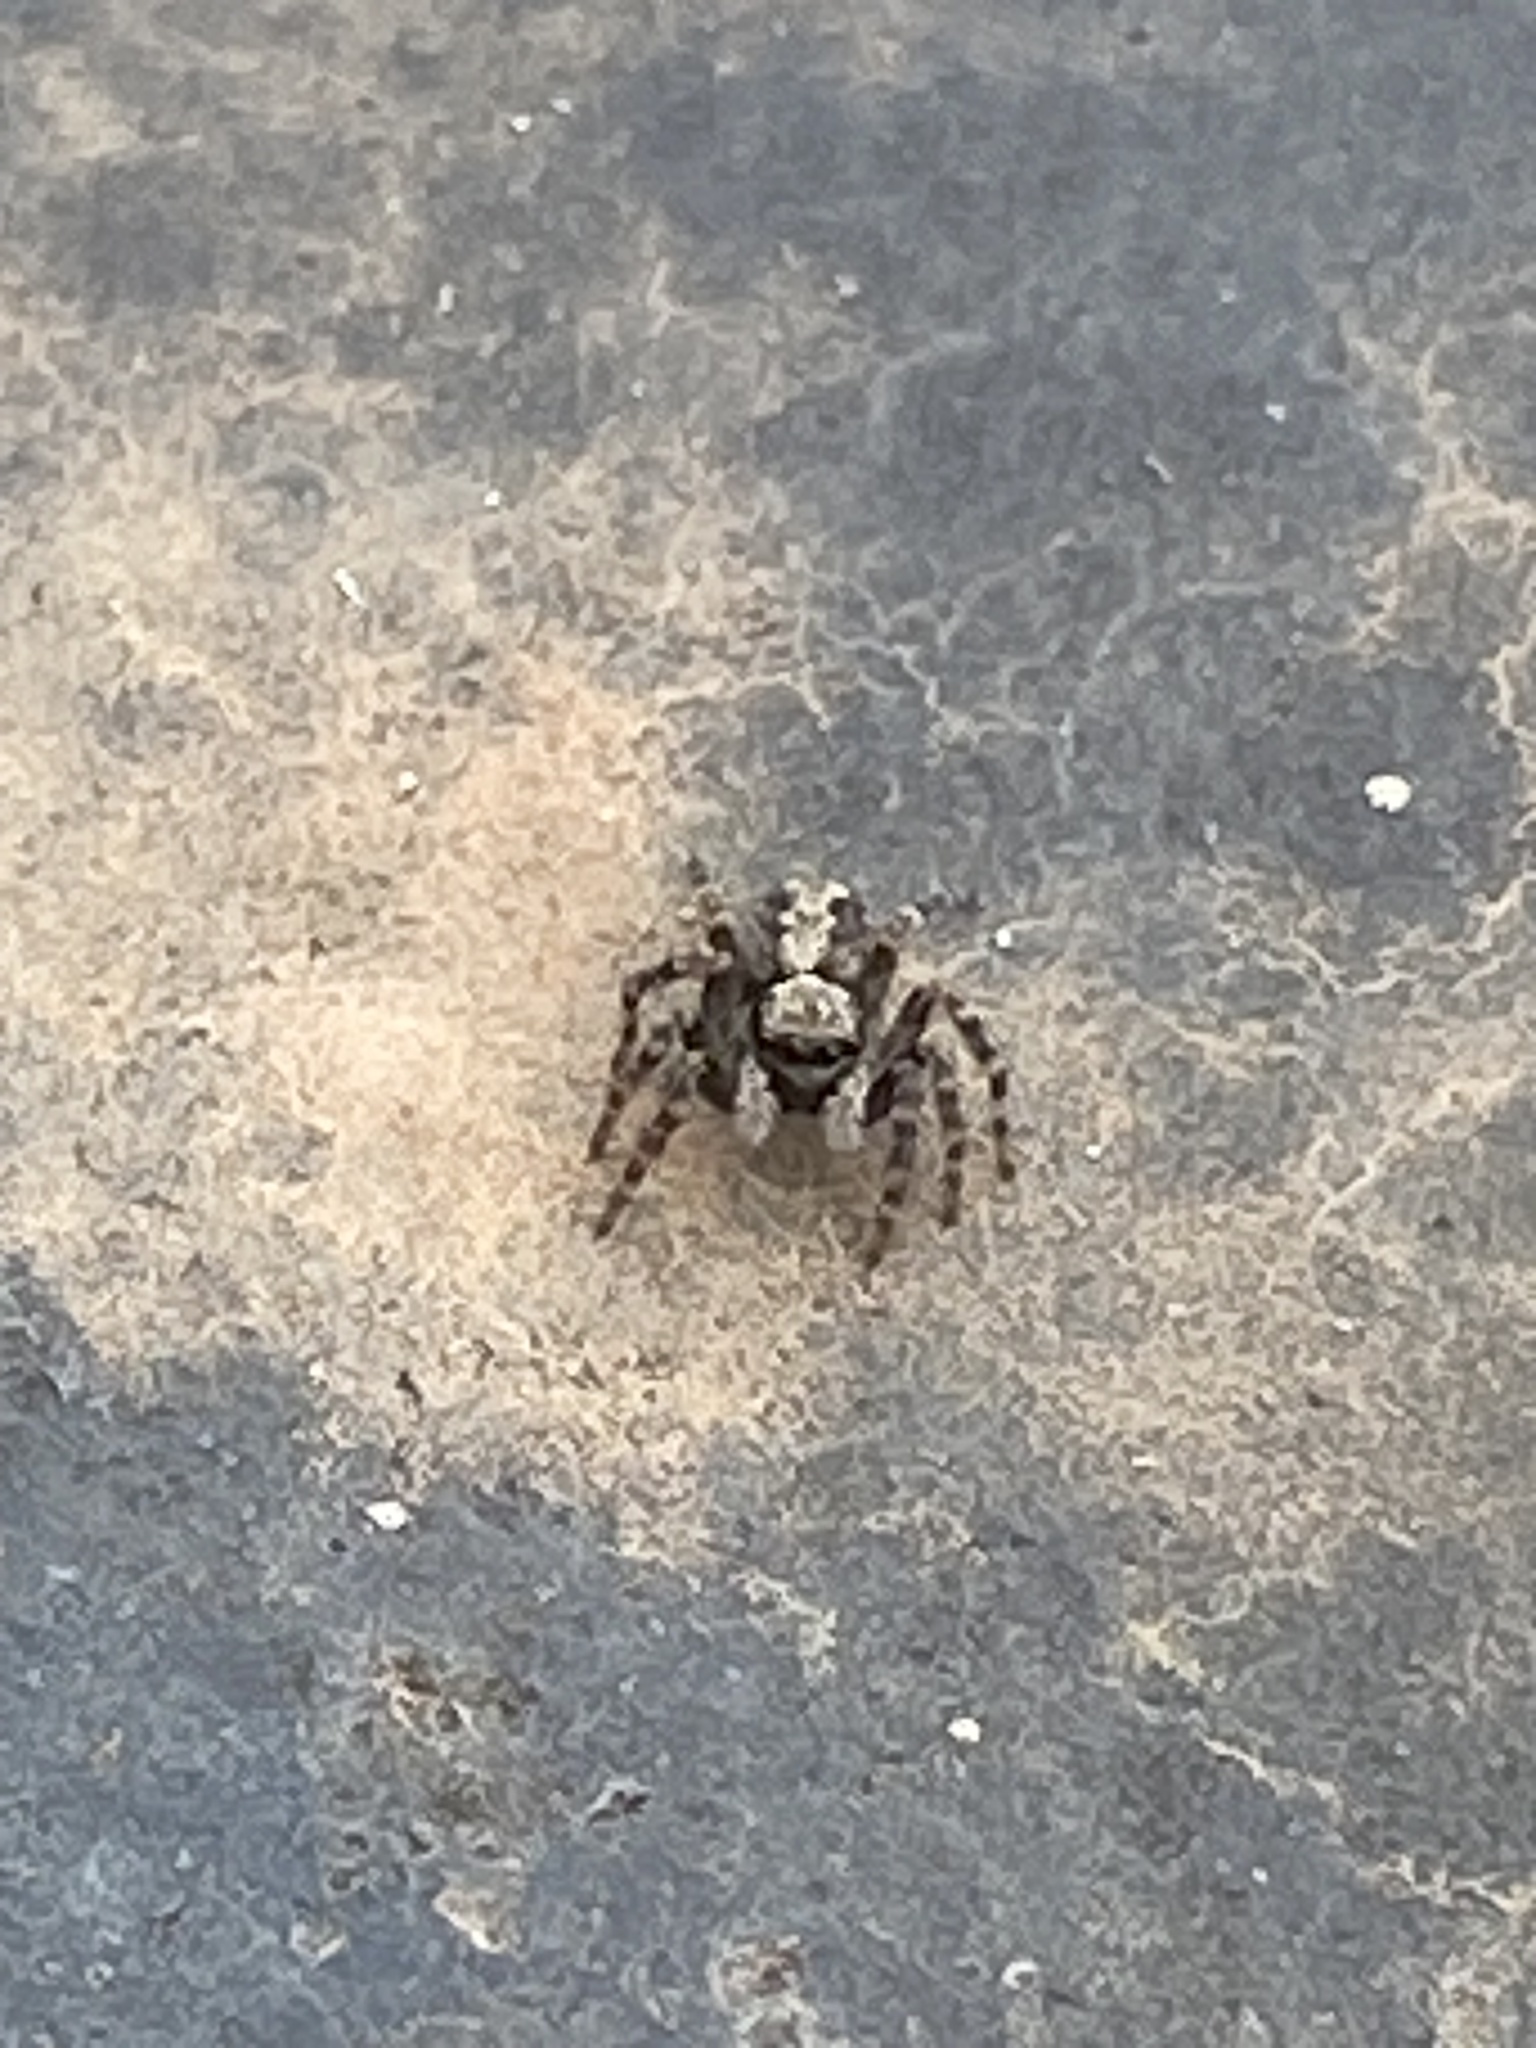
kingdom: Animalia
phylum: Arthropoda
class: Arachnida
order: Araneae
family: Salticidae
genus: Pseudeuophrys
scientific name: Pseudeuophrys lanigera
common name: Jumping spider
